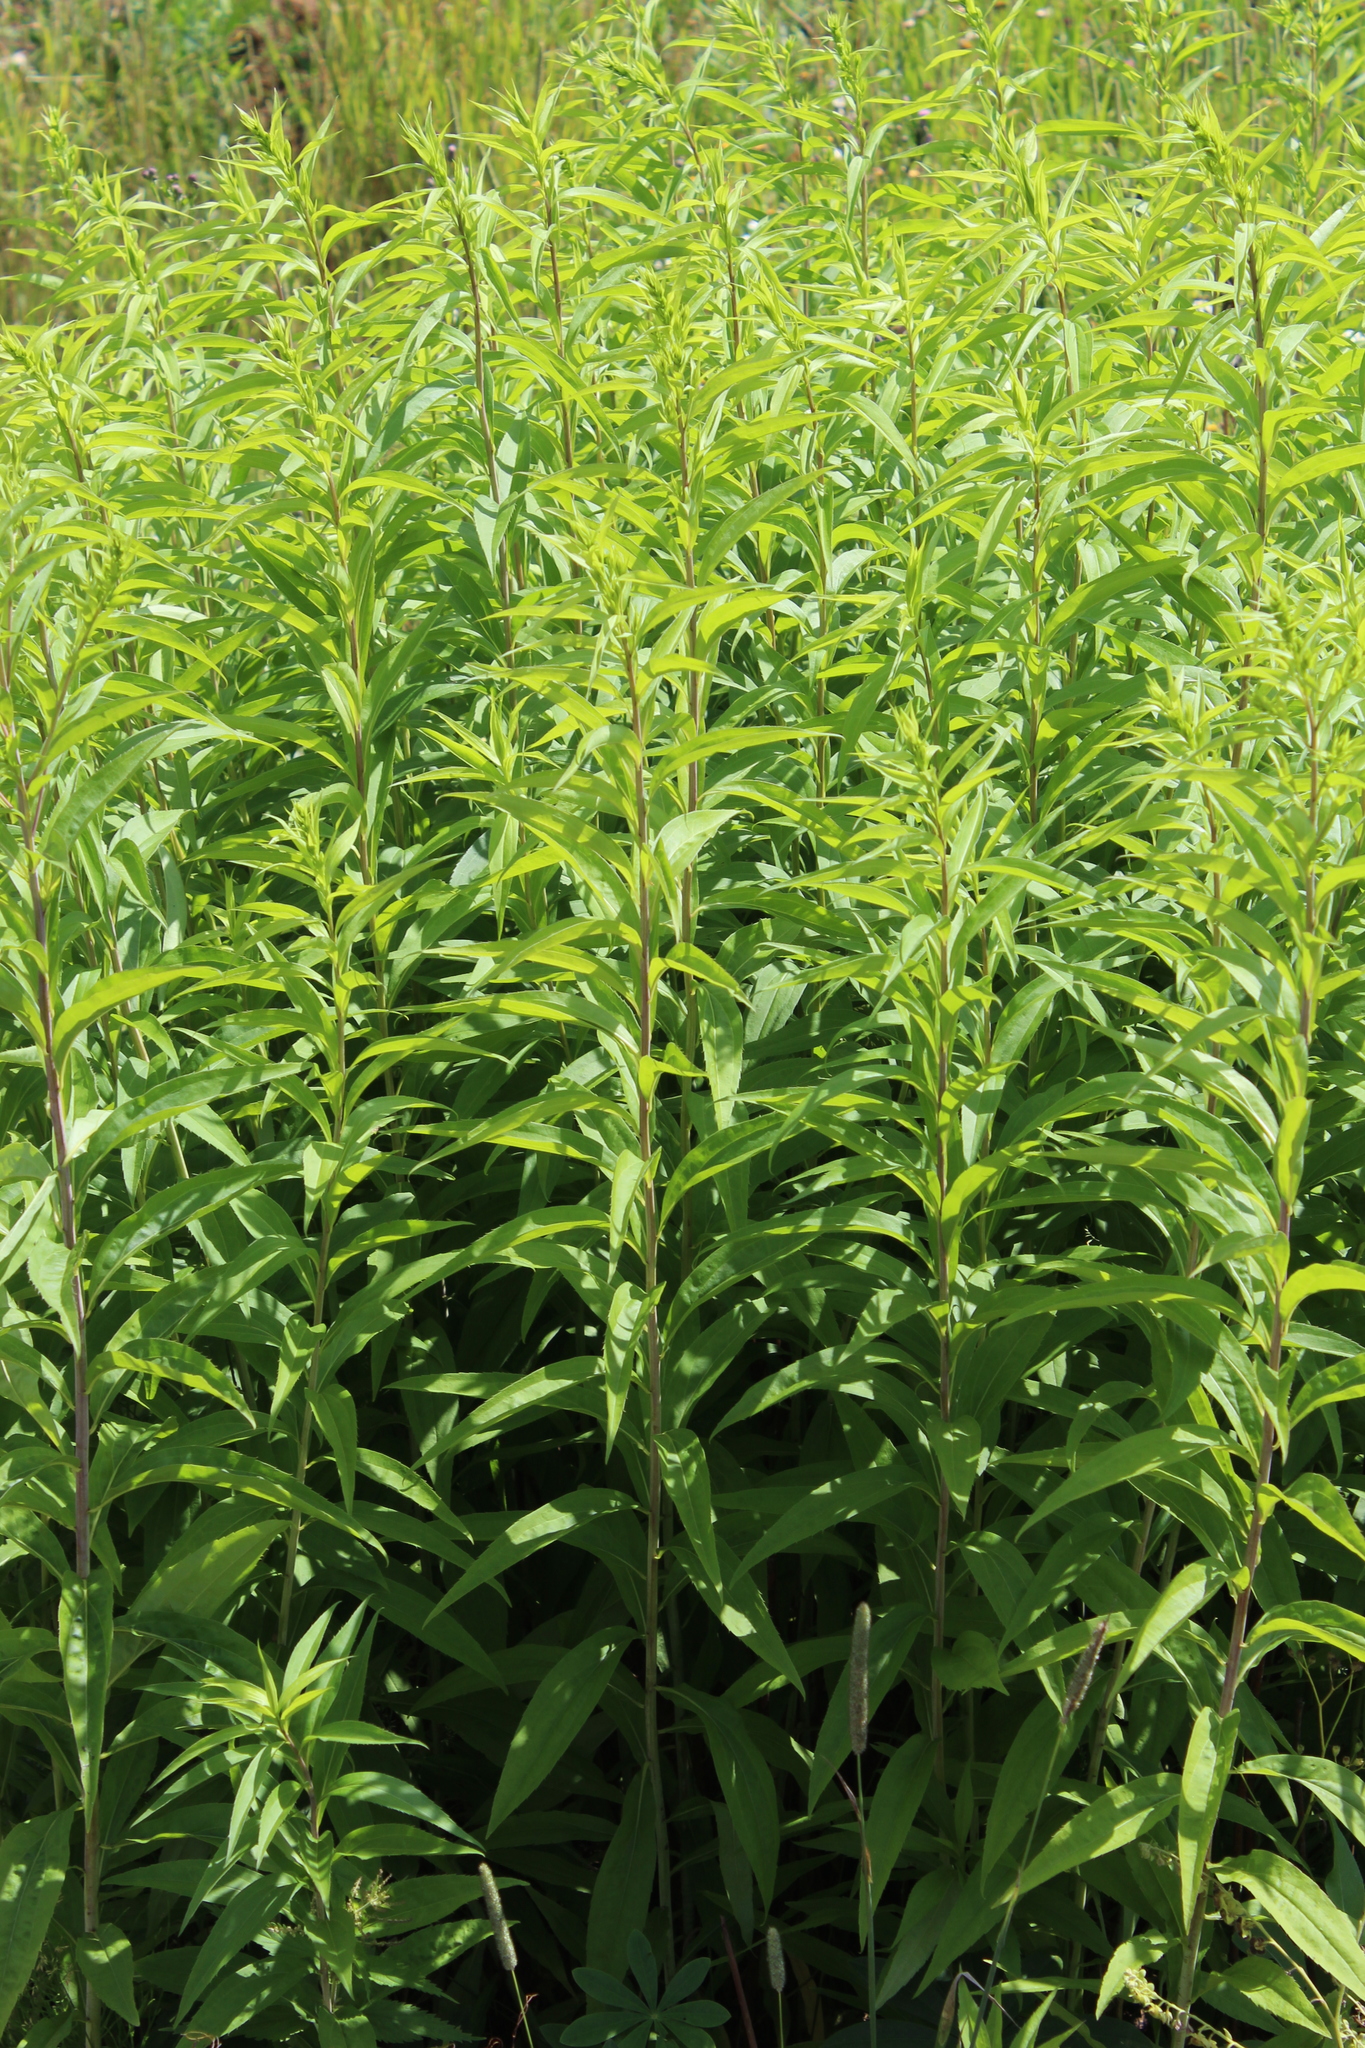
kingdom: Plantae
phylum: Tracheophyta
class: Magnoliopsida
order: Asterales
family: Asteraceae
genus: Solidago
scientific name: Solidago gigantea
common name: Giant goldenrod
